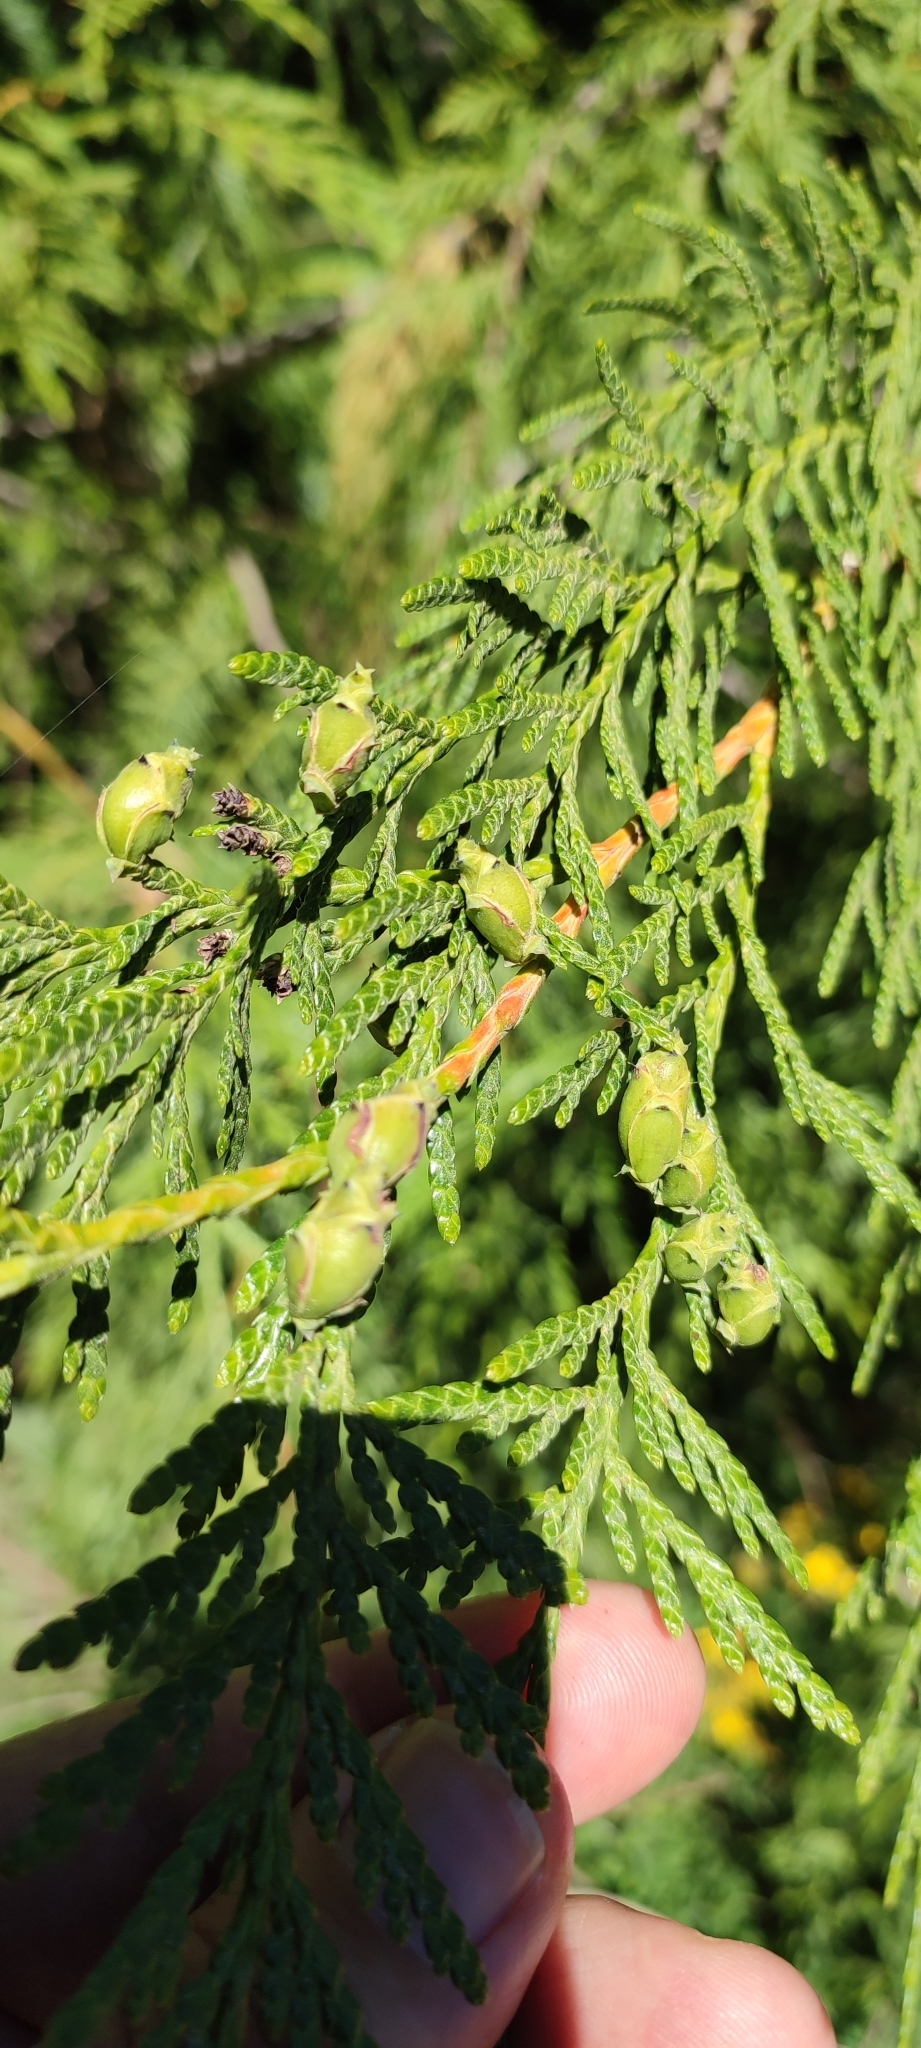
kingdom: Plantae
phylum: Tracheophyta
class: Pinopsida
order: Pinales
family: Cupressaceae
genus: Thuja
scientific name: Thuja plicata
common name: Western red-cedar
